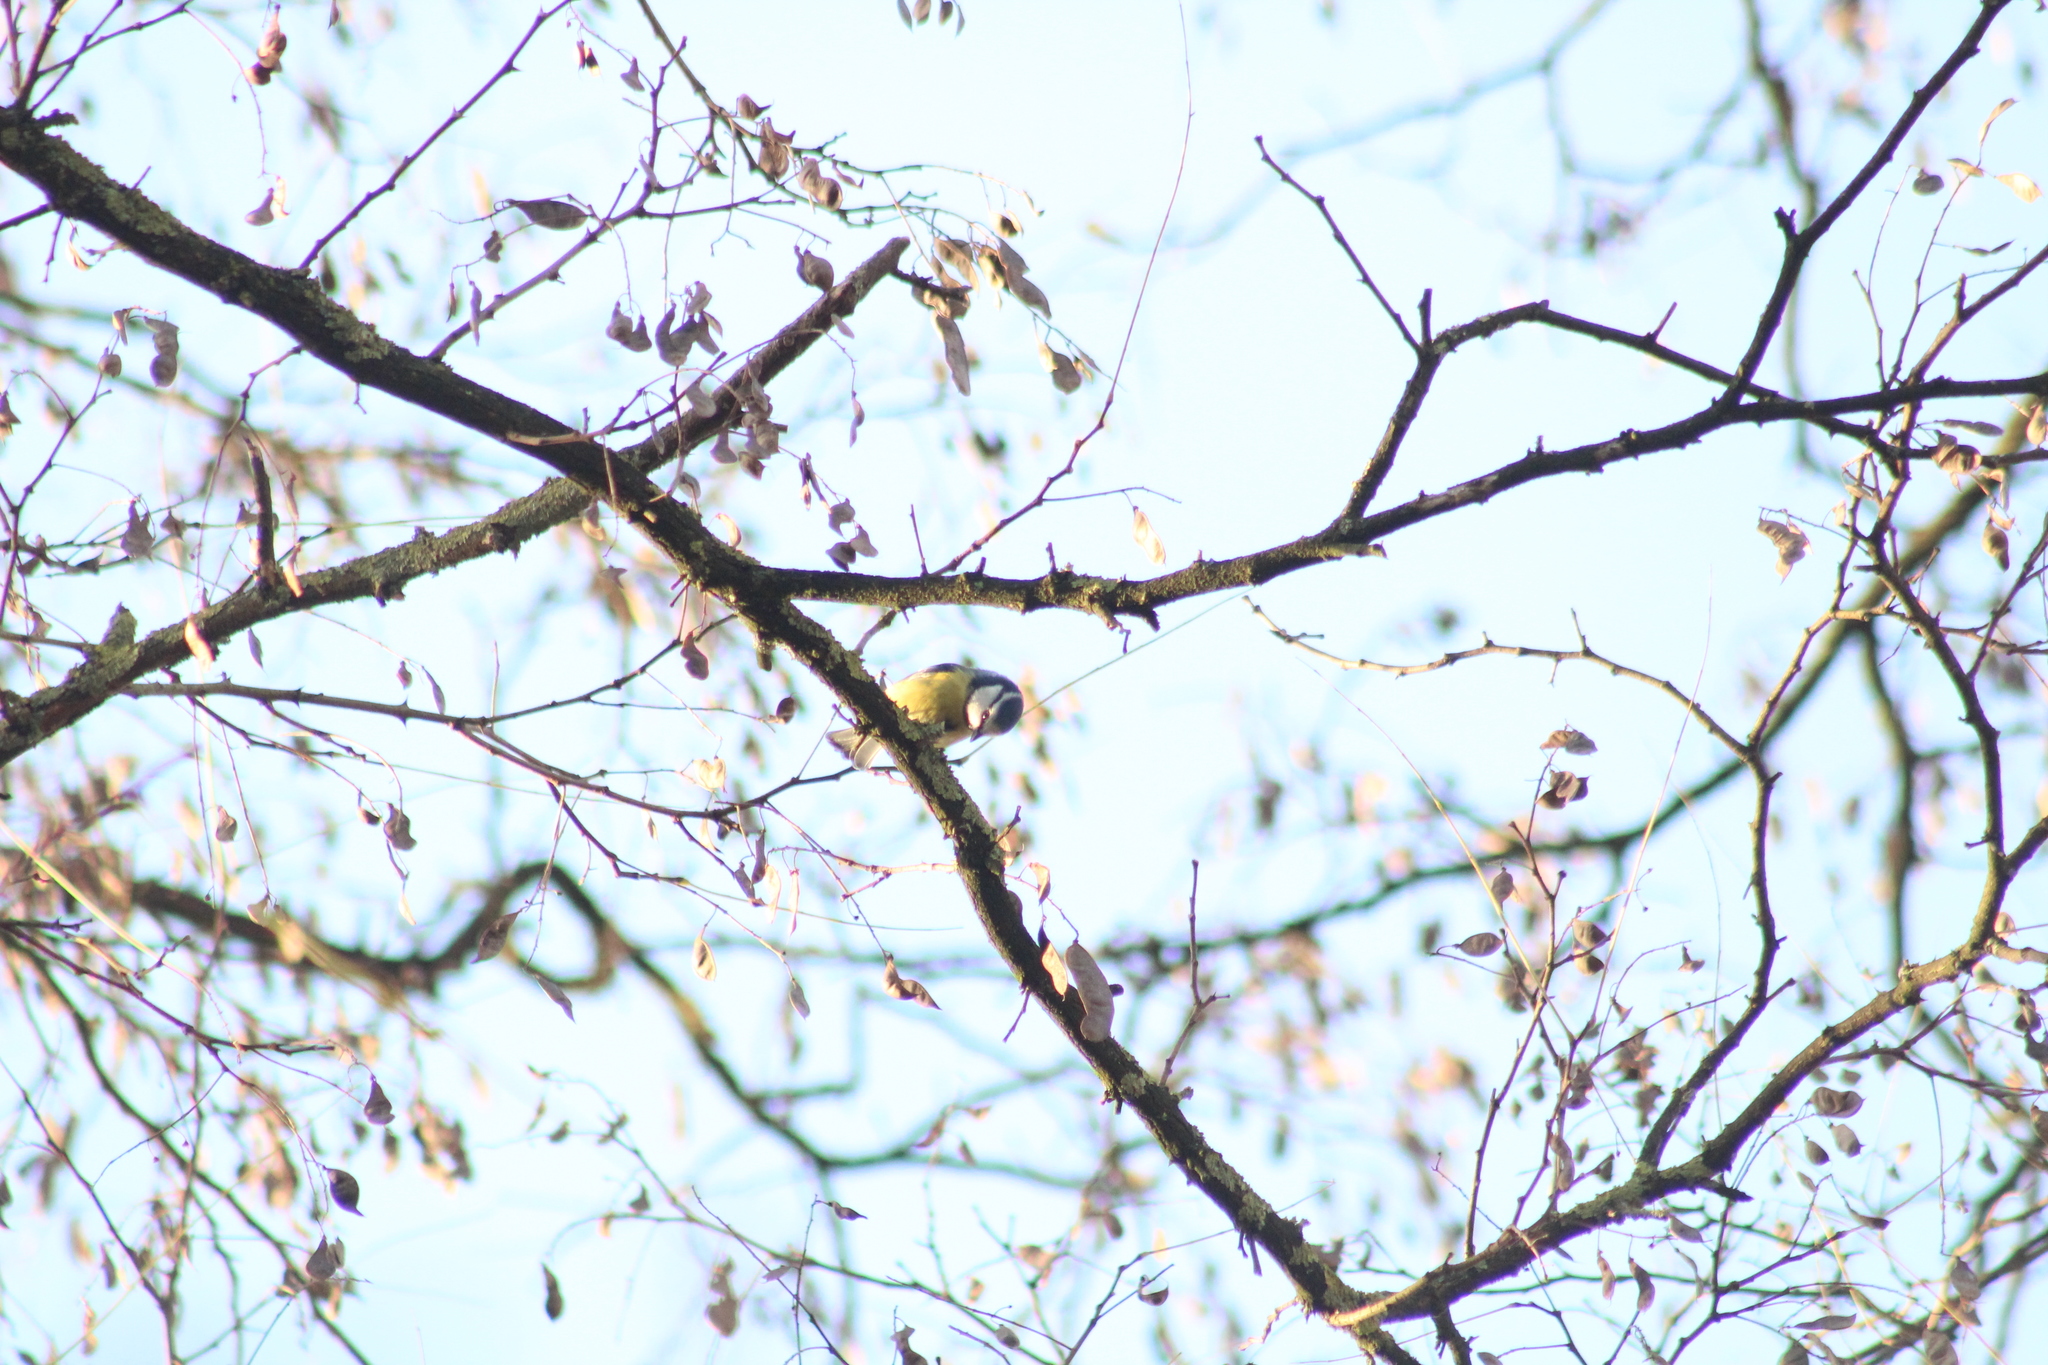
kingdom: Animalia
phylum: Chordata
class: Aves
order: Passeriformes
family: Paridae
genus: Cyanistes
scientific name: Cyanistes caeruleus
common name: Eurasian blue tit
